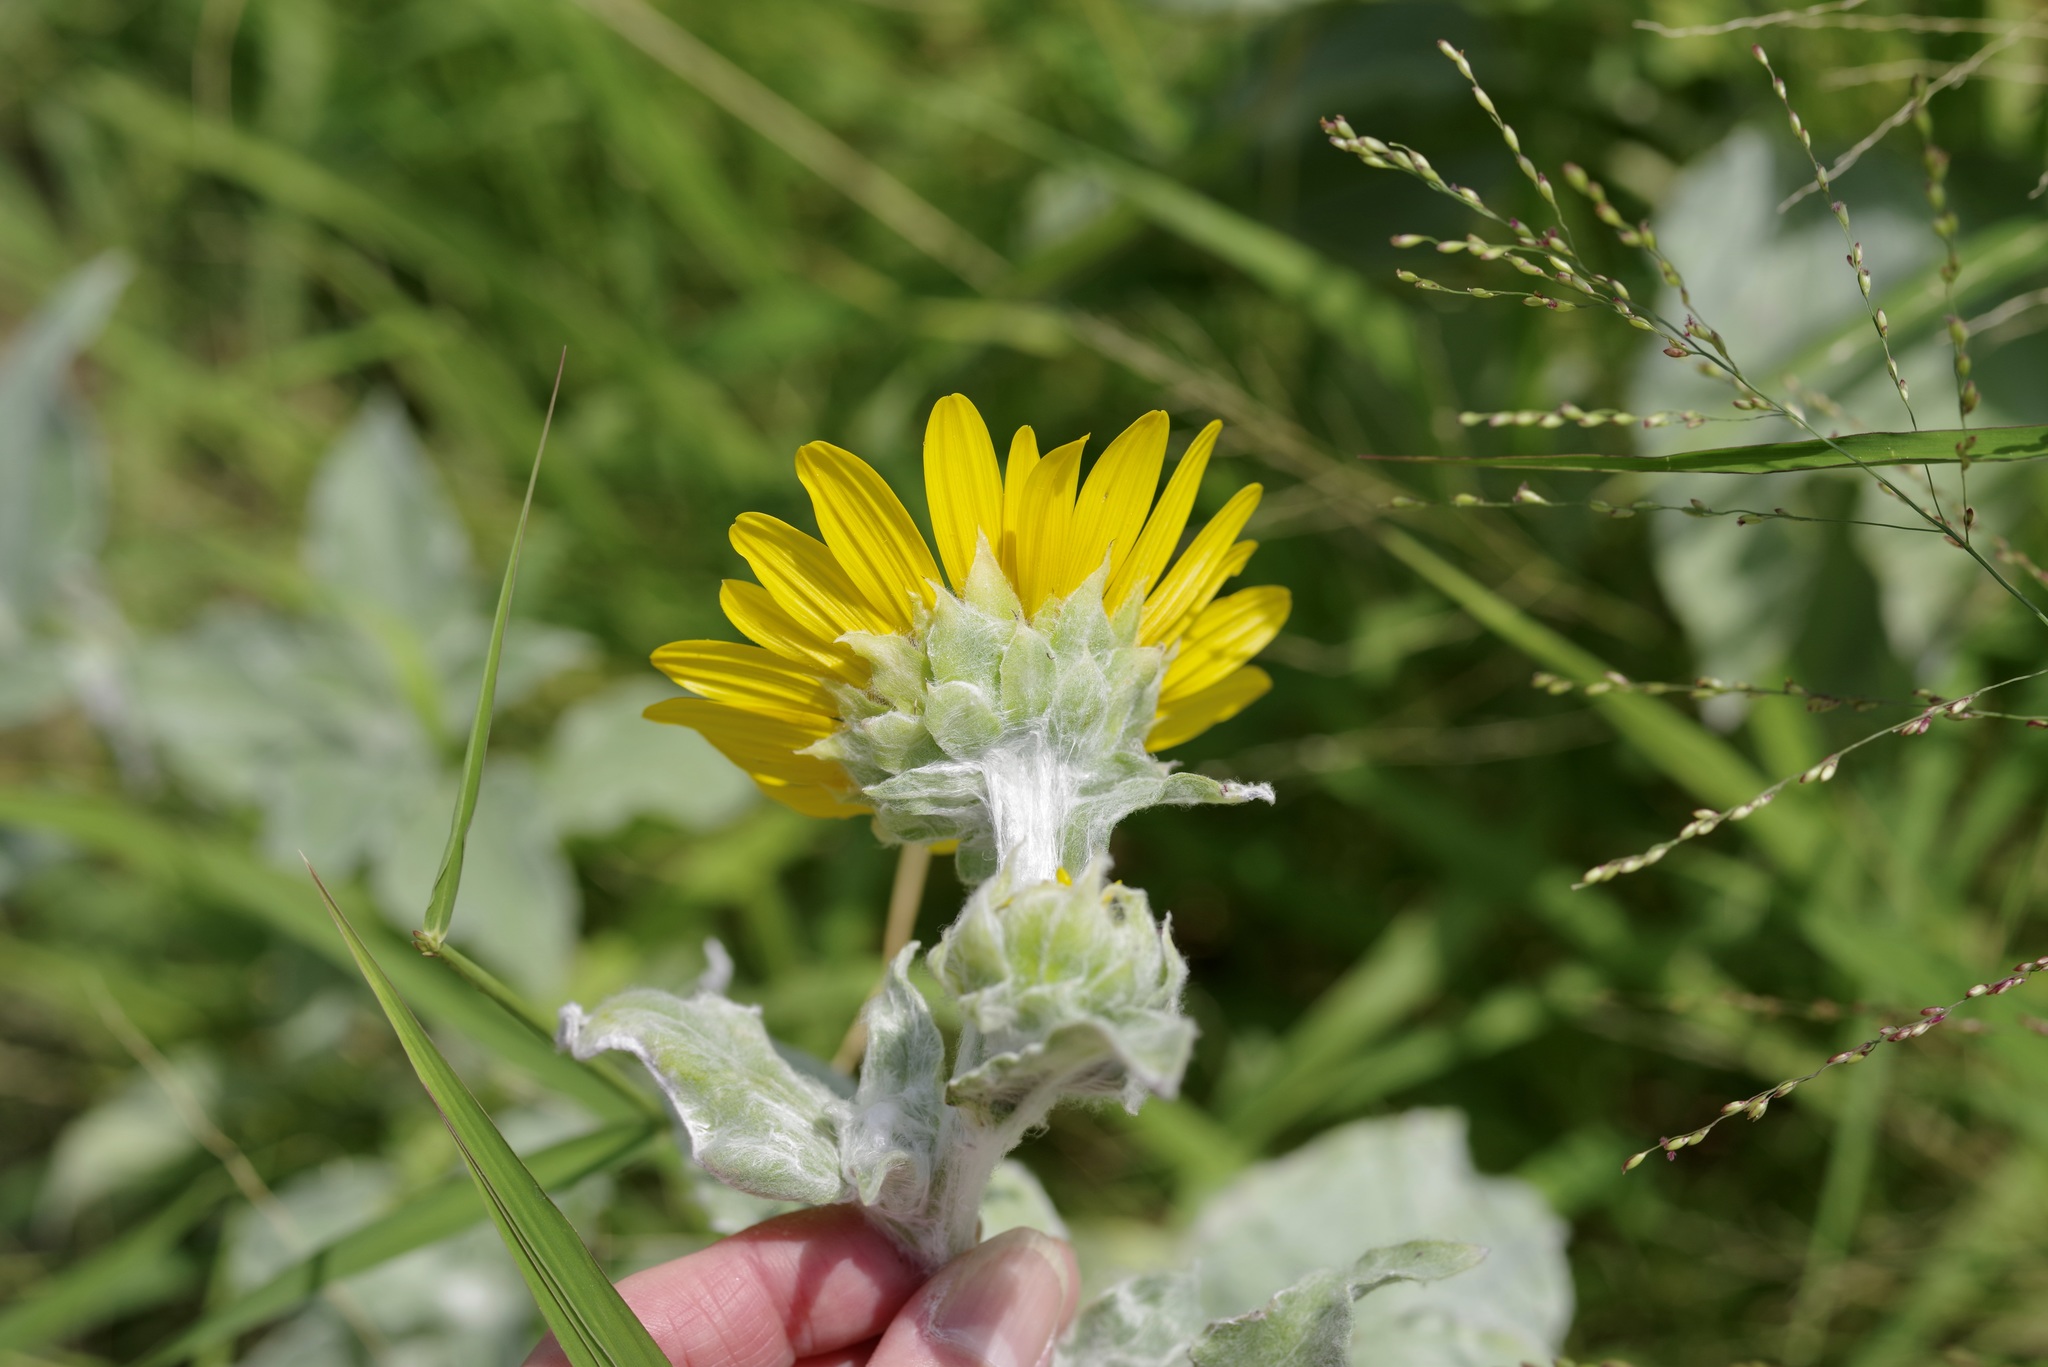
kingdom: Plantae
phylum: Tracheophyta
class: Magnoliopsida
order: Asterales
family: Asteraceae
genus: Helianthus
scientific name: Helianthus argophyllus
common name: Silverleaf sunflower
